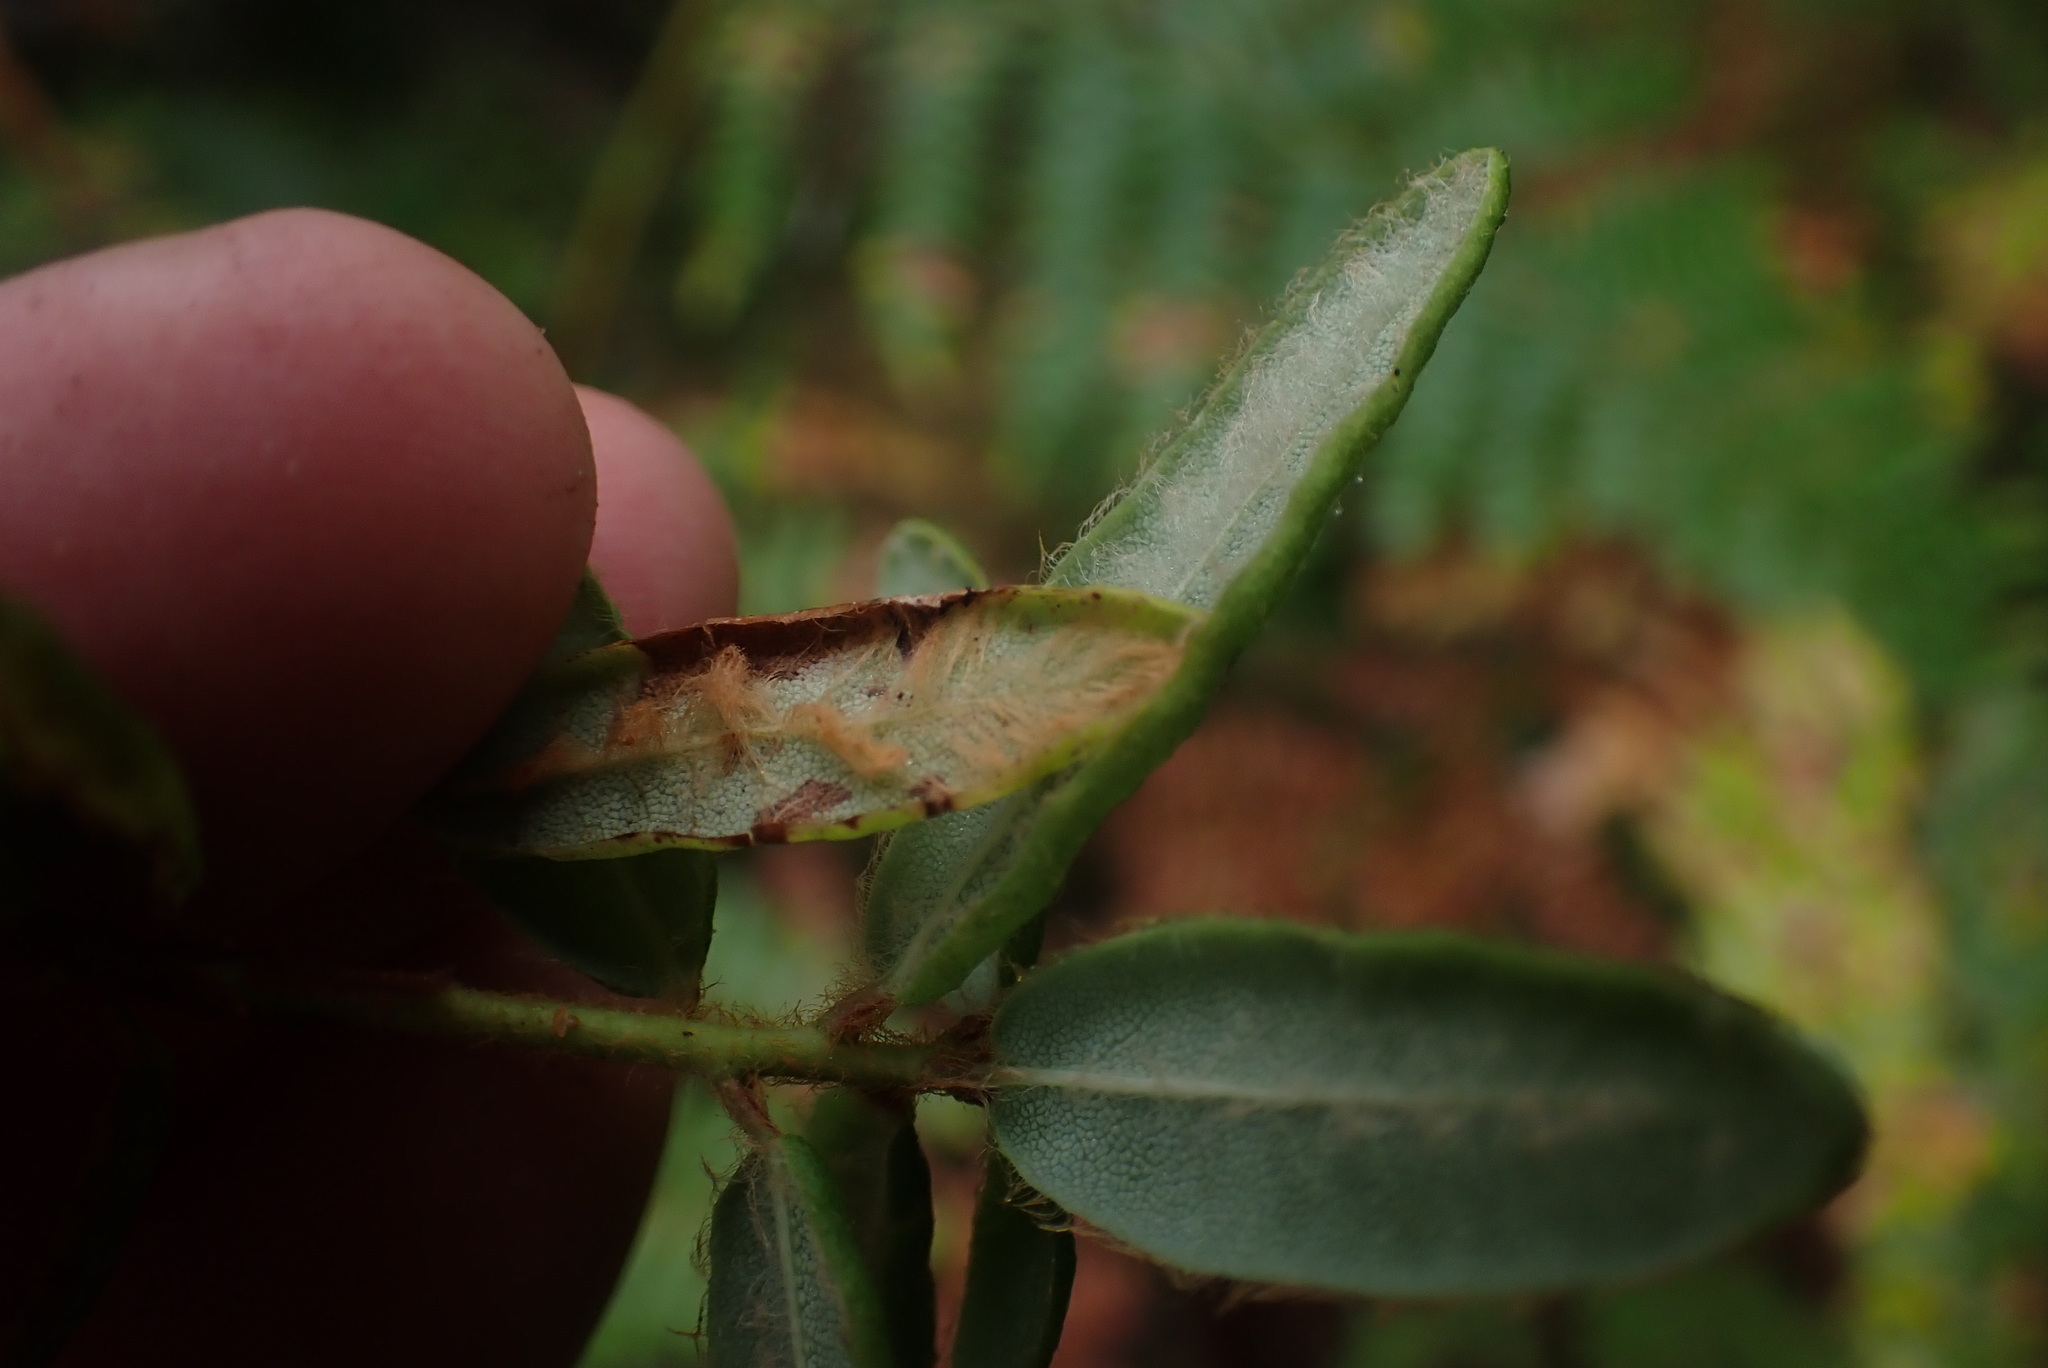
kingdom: Plantae
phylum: Tracheophyta
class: Magnoliopsida
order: Ericales
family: Ericaceae
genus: Rhododendron
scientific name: Rhododendron groenlandicum
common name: Bog labrador tea
